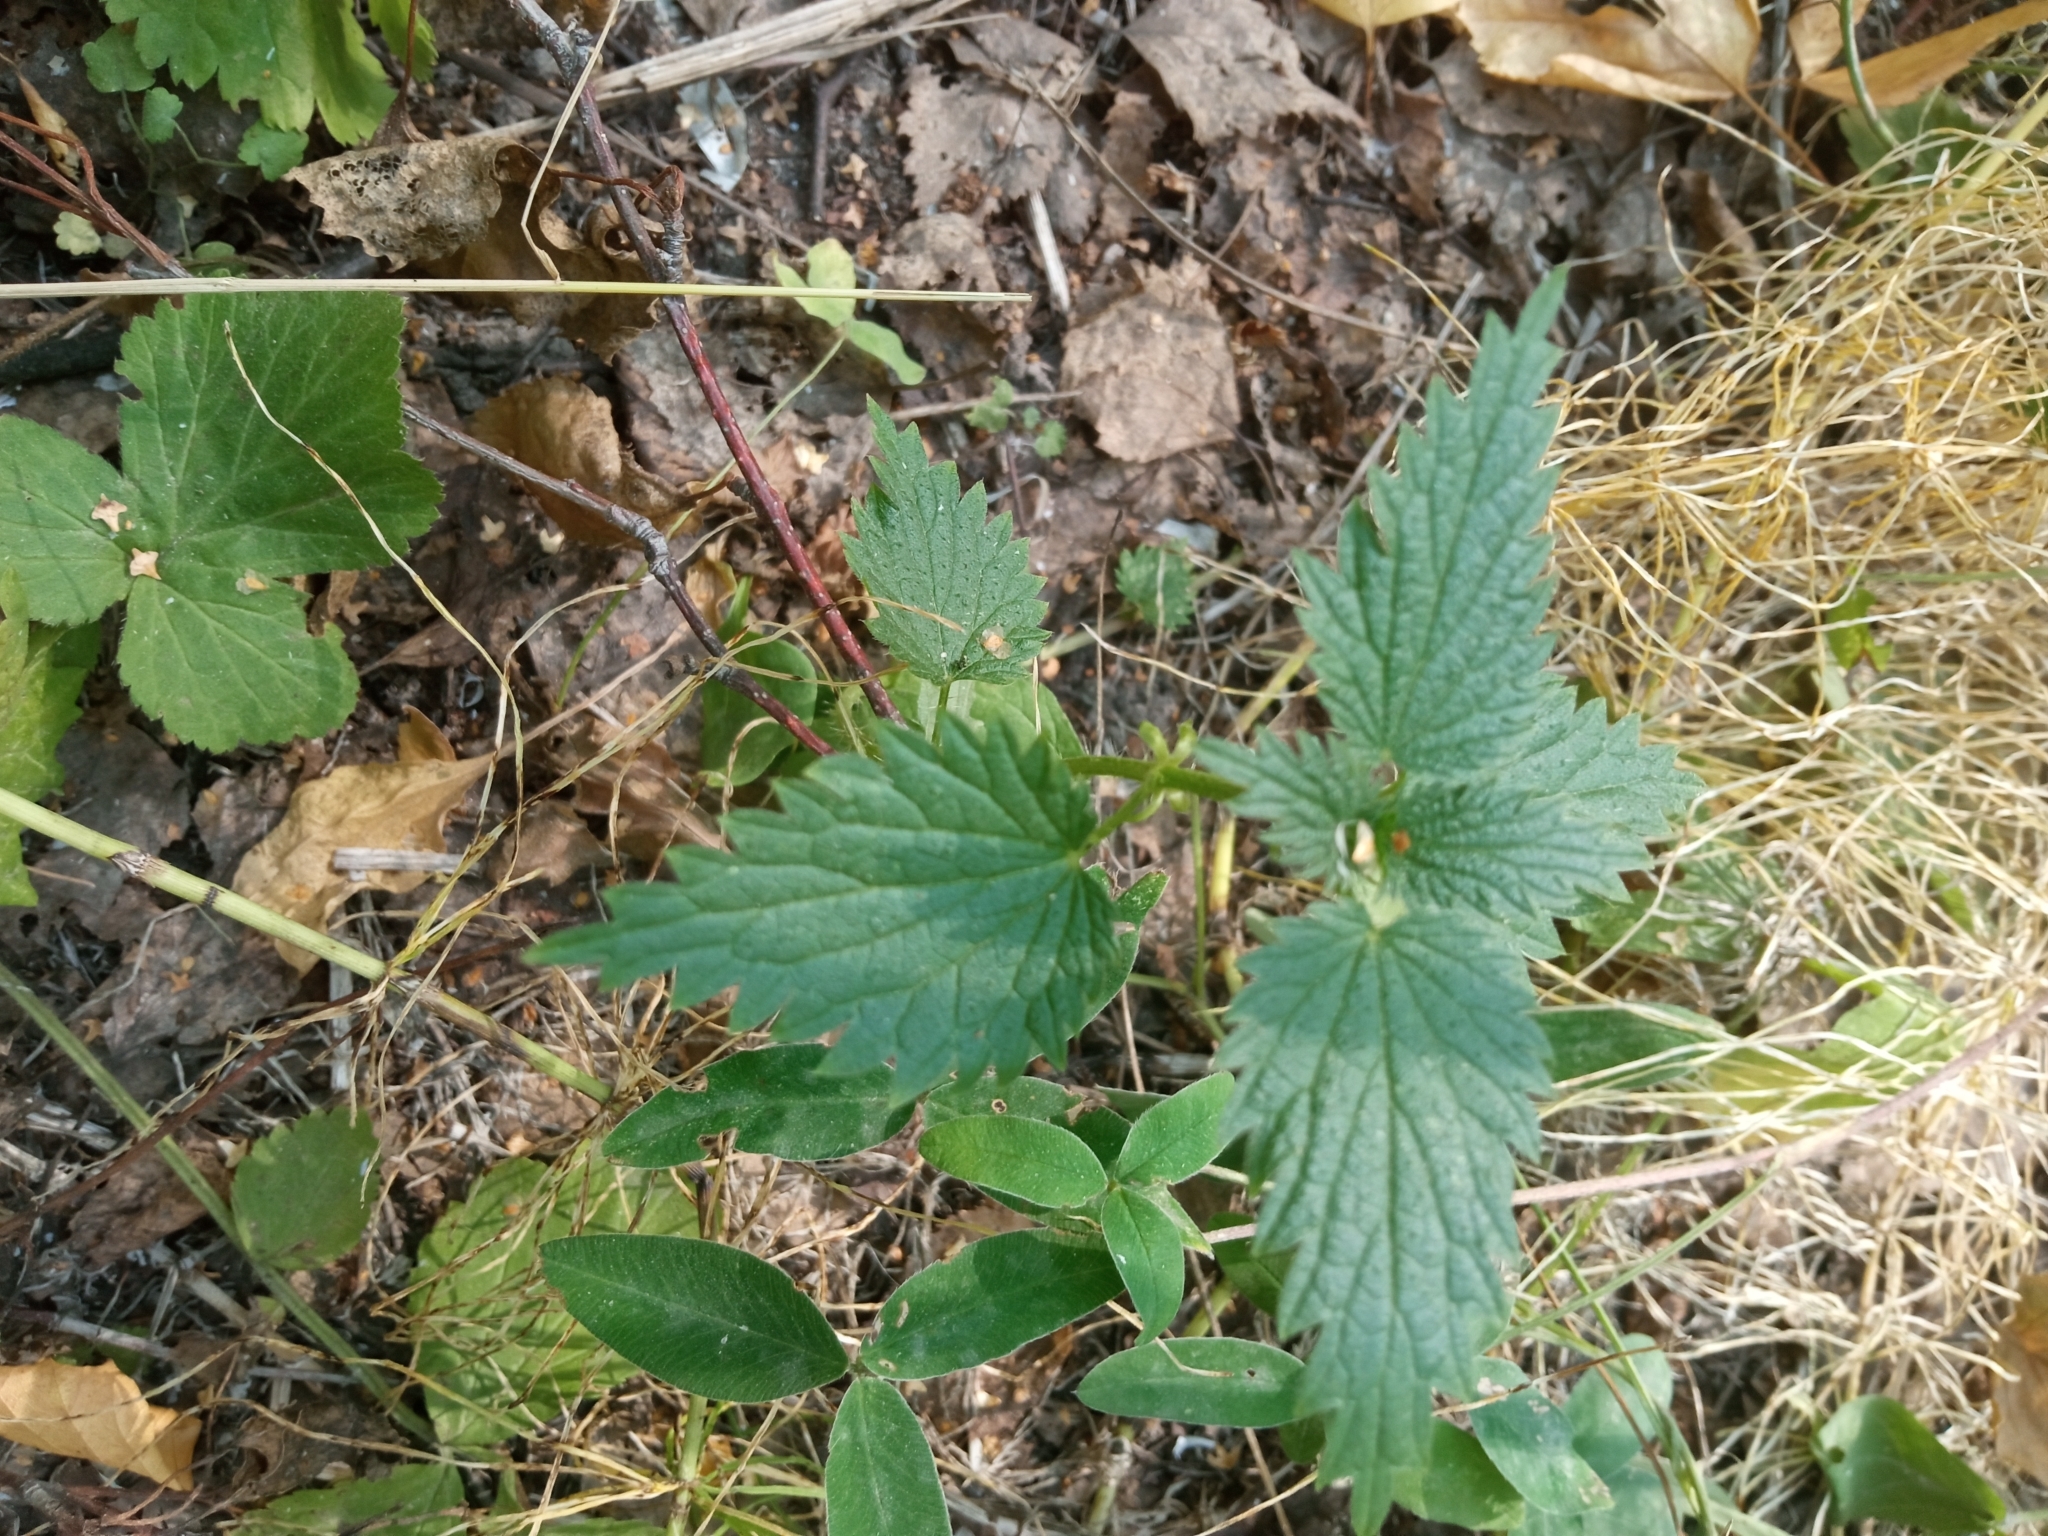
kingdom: Plantae
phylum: Tracheophyta
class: Magnoliopsida
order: Rosales
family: Urticaceae
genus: Urtica
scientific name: Urtica dioica
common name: Common nettle
